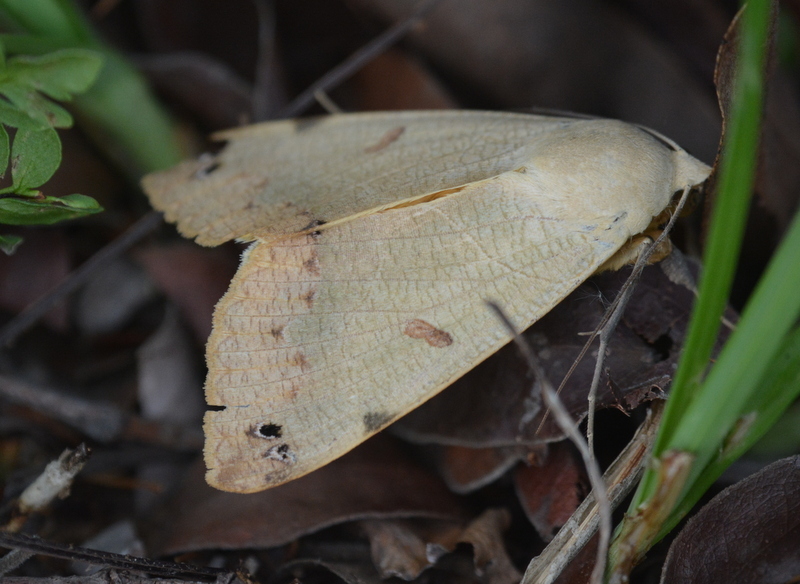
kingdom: Animalia
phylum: Arthropoda
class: Insecta
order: Lepidoptera
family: Erebidae
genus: Ophiusa
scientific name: Ophiusa tirhaca
